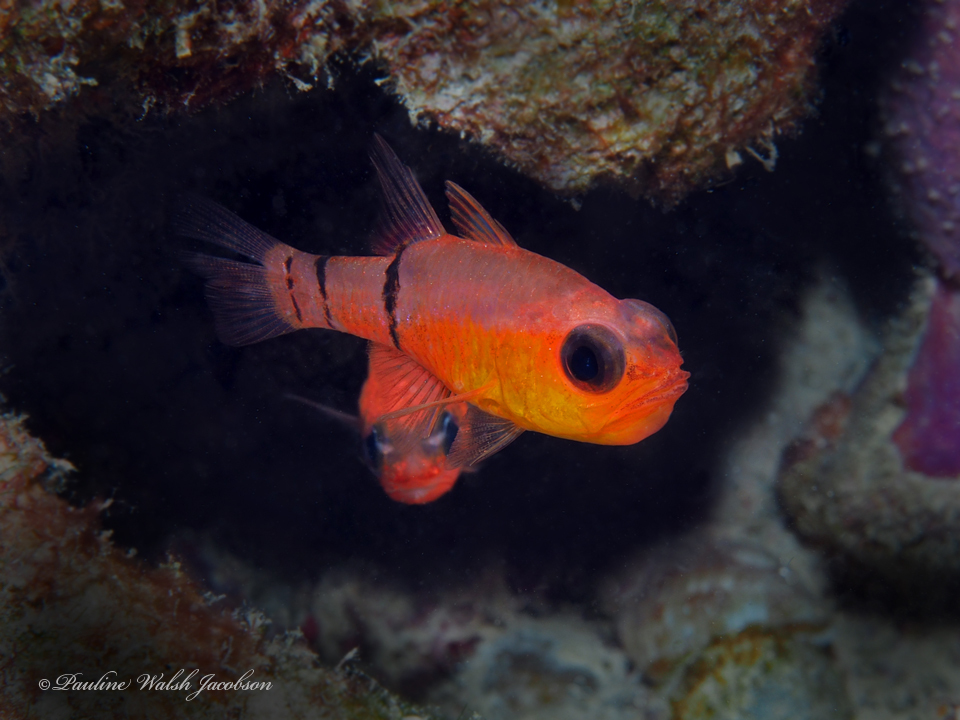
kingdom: Animalia
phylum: Chordata
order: Perciformes
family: Apogonidae
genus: Apogon
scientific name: Apogon townsendi
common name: Belted cardinalfish
